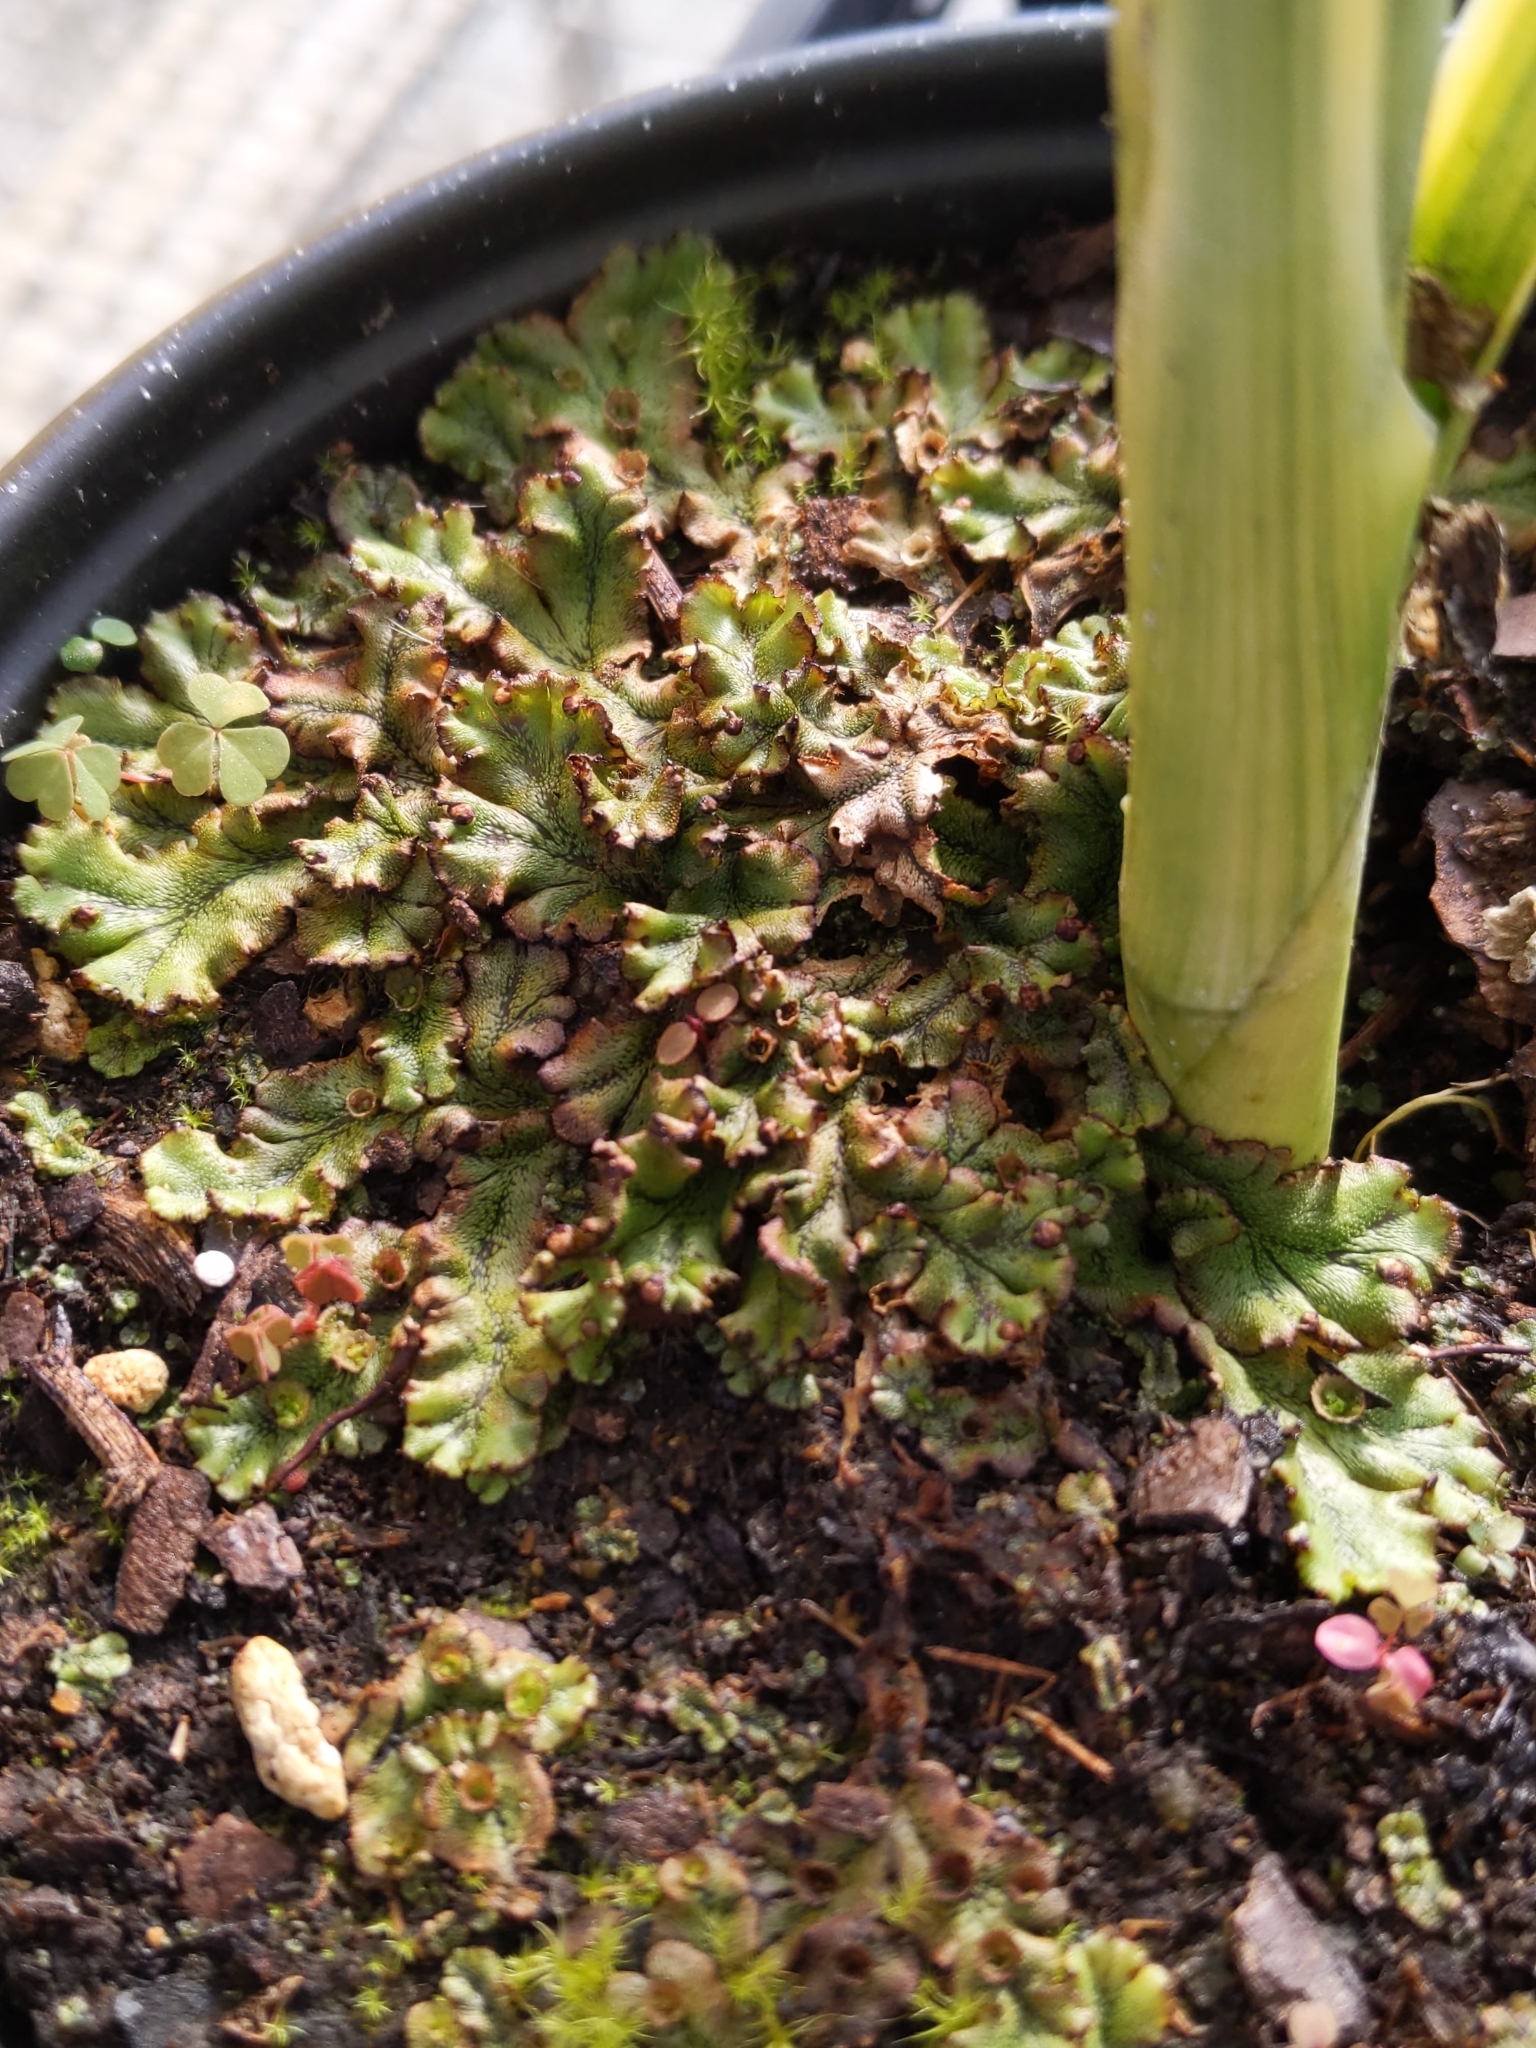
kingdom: Plantae
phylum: Marchantiophyta
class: Marchantiopsida
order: Marchantiales
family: Marchantiaceae
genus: Marchantia
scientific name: Marchantia polymorpha
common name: Common liverwort
